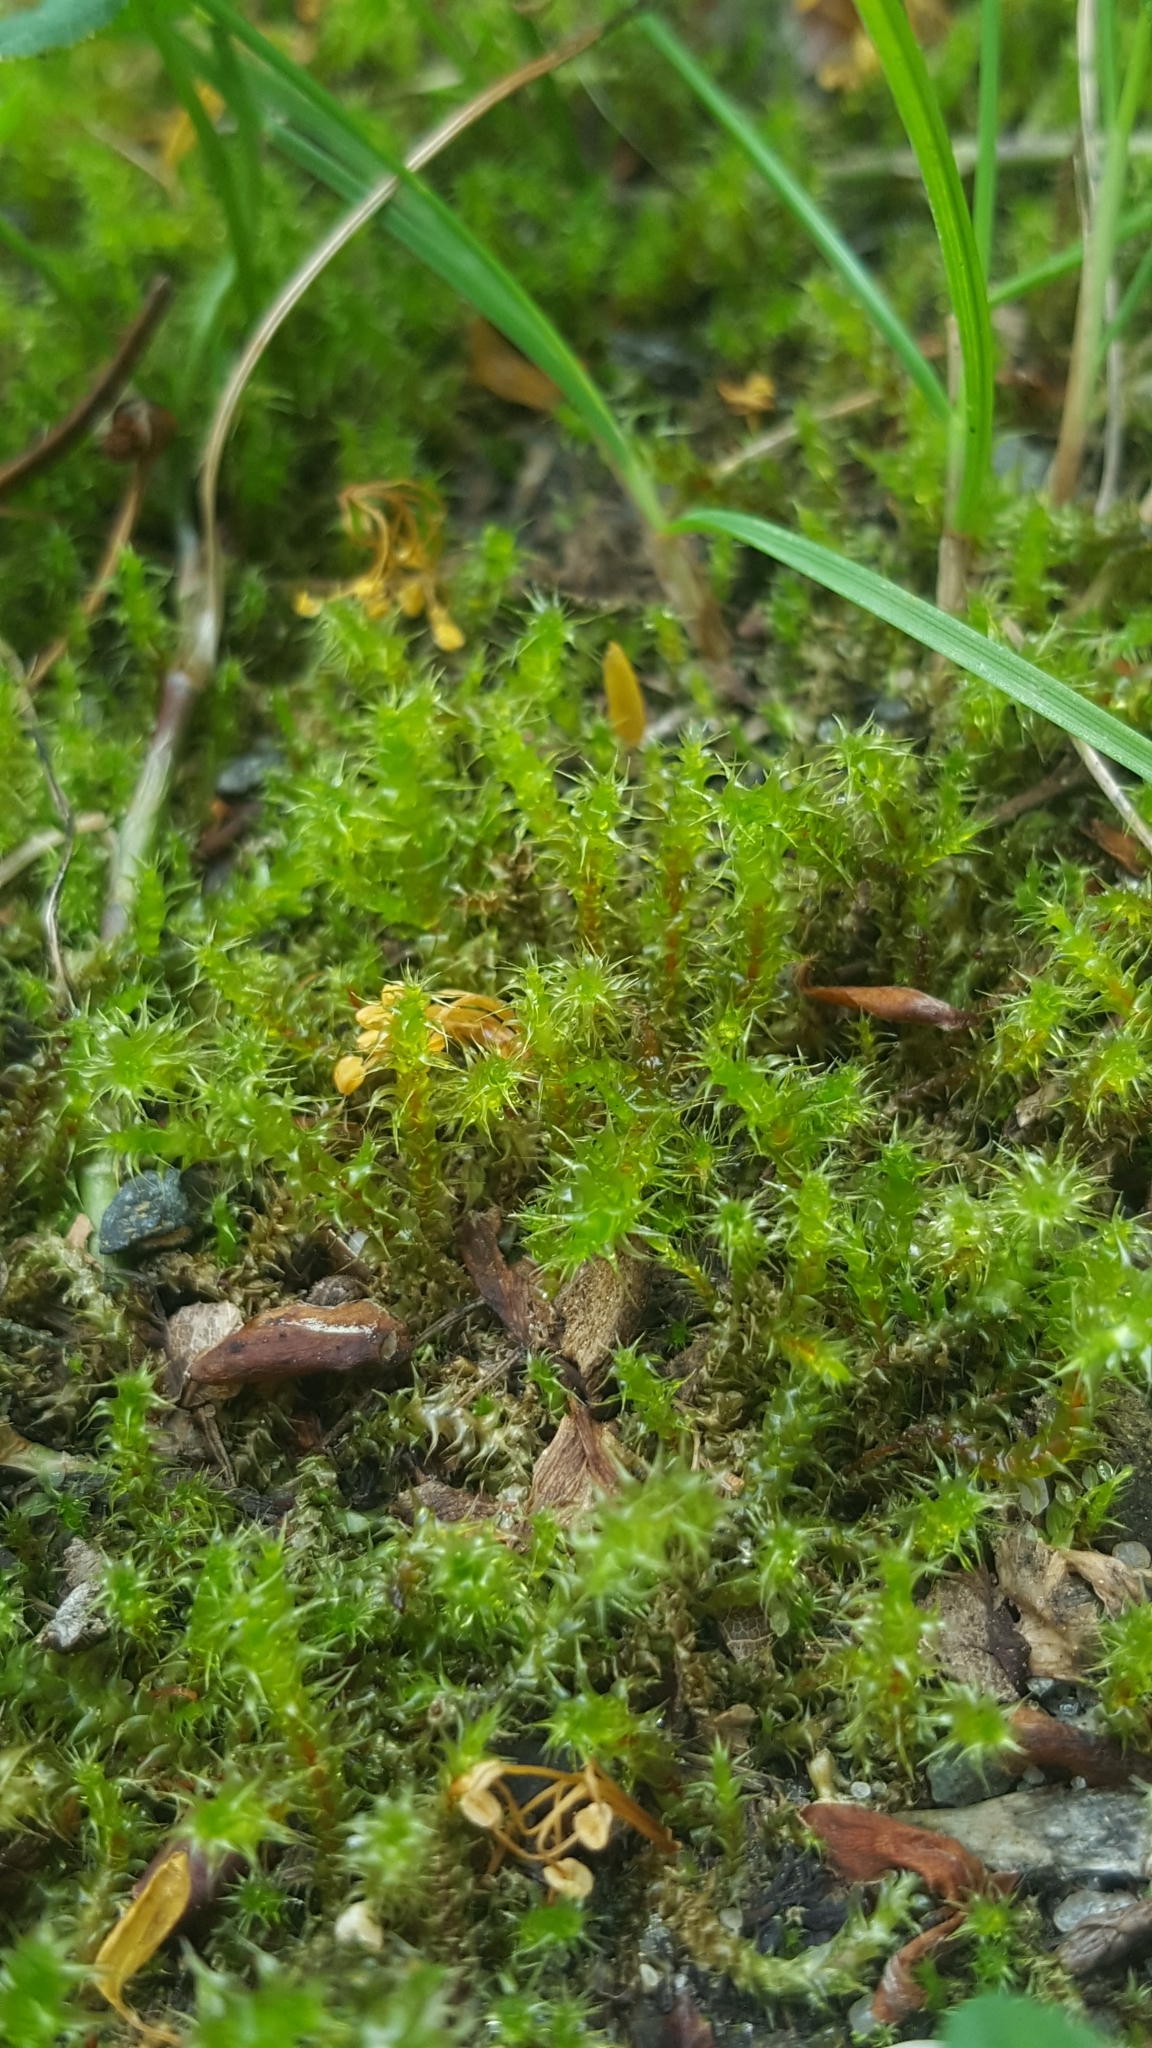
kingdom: Plantae
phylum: Bryophyta
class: Bryopsida
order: Hypnales
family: Hylocomiaceae
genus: Rhytidiadelphus
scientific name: Rhytidiadelphus squarrosus
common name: Springy turf-moss
